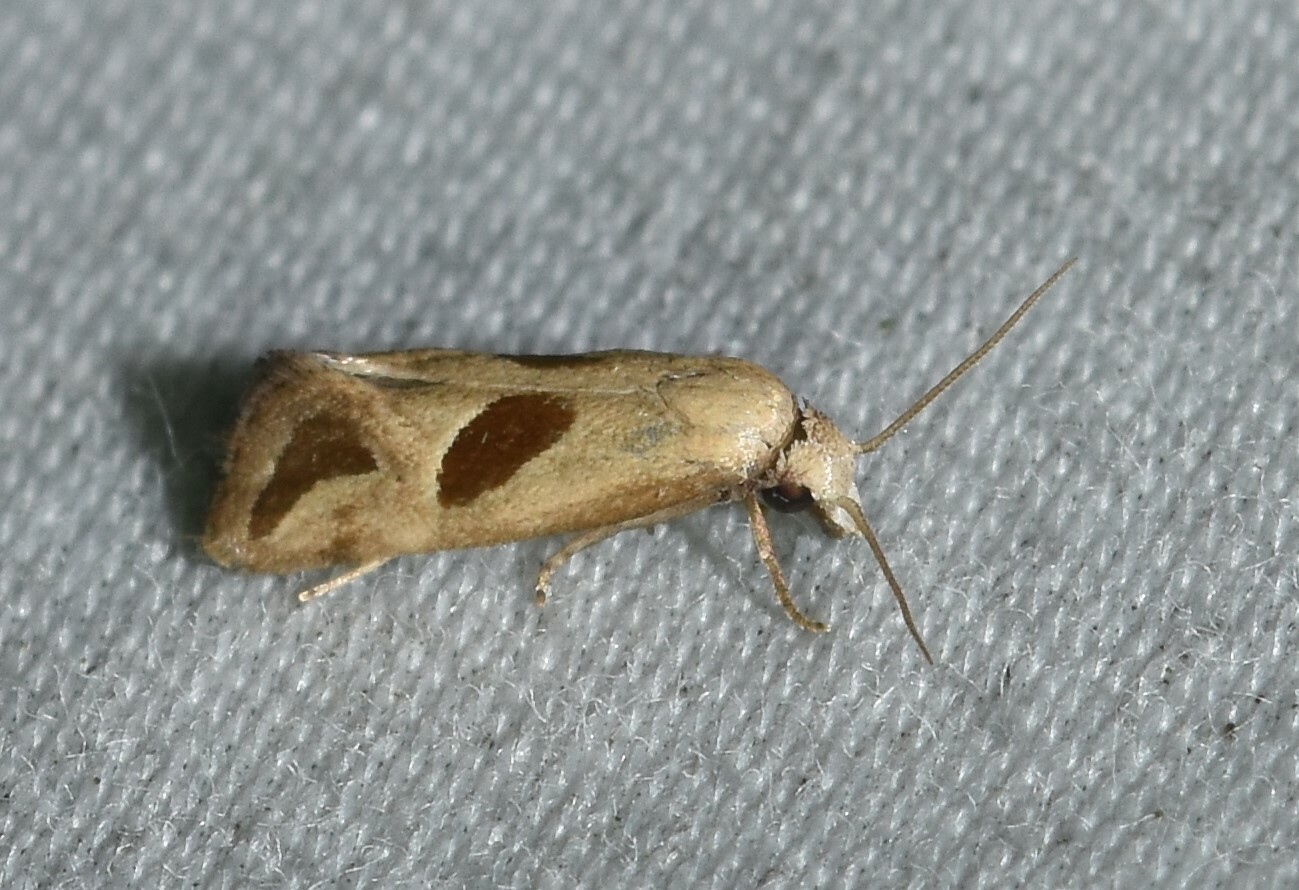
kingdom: Animalia
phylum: Arthropoda
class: Insecta
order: Lepidoptera
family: Tortricidae
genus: Eugnosta
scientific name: Eugnosta bimaculana
